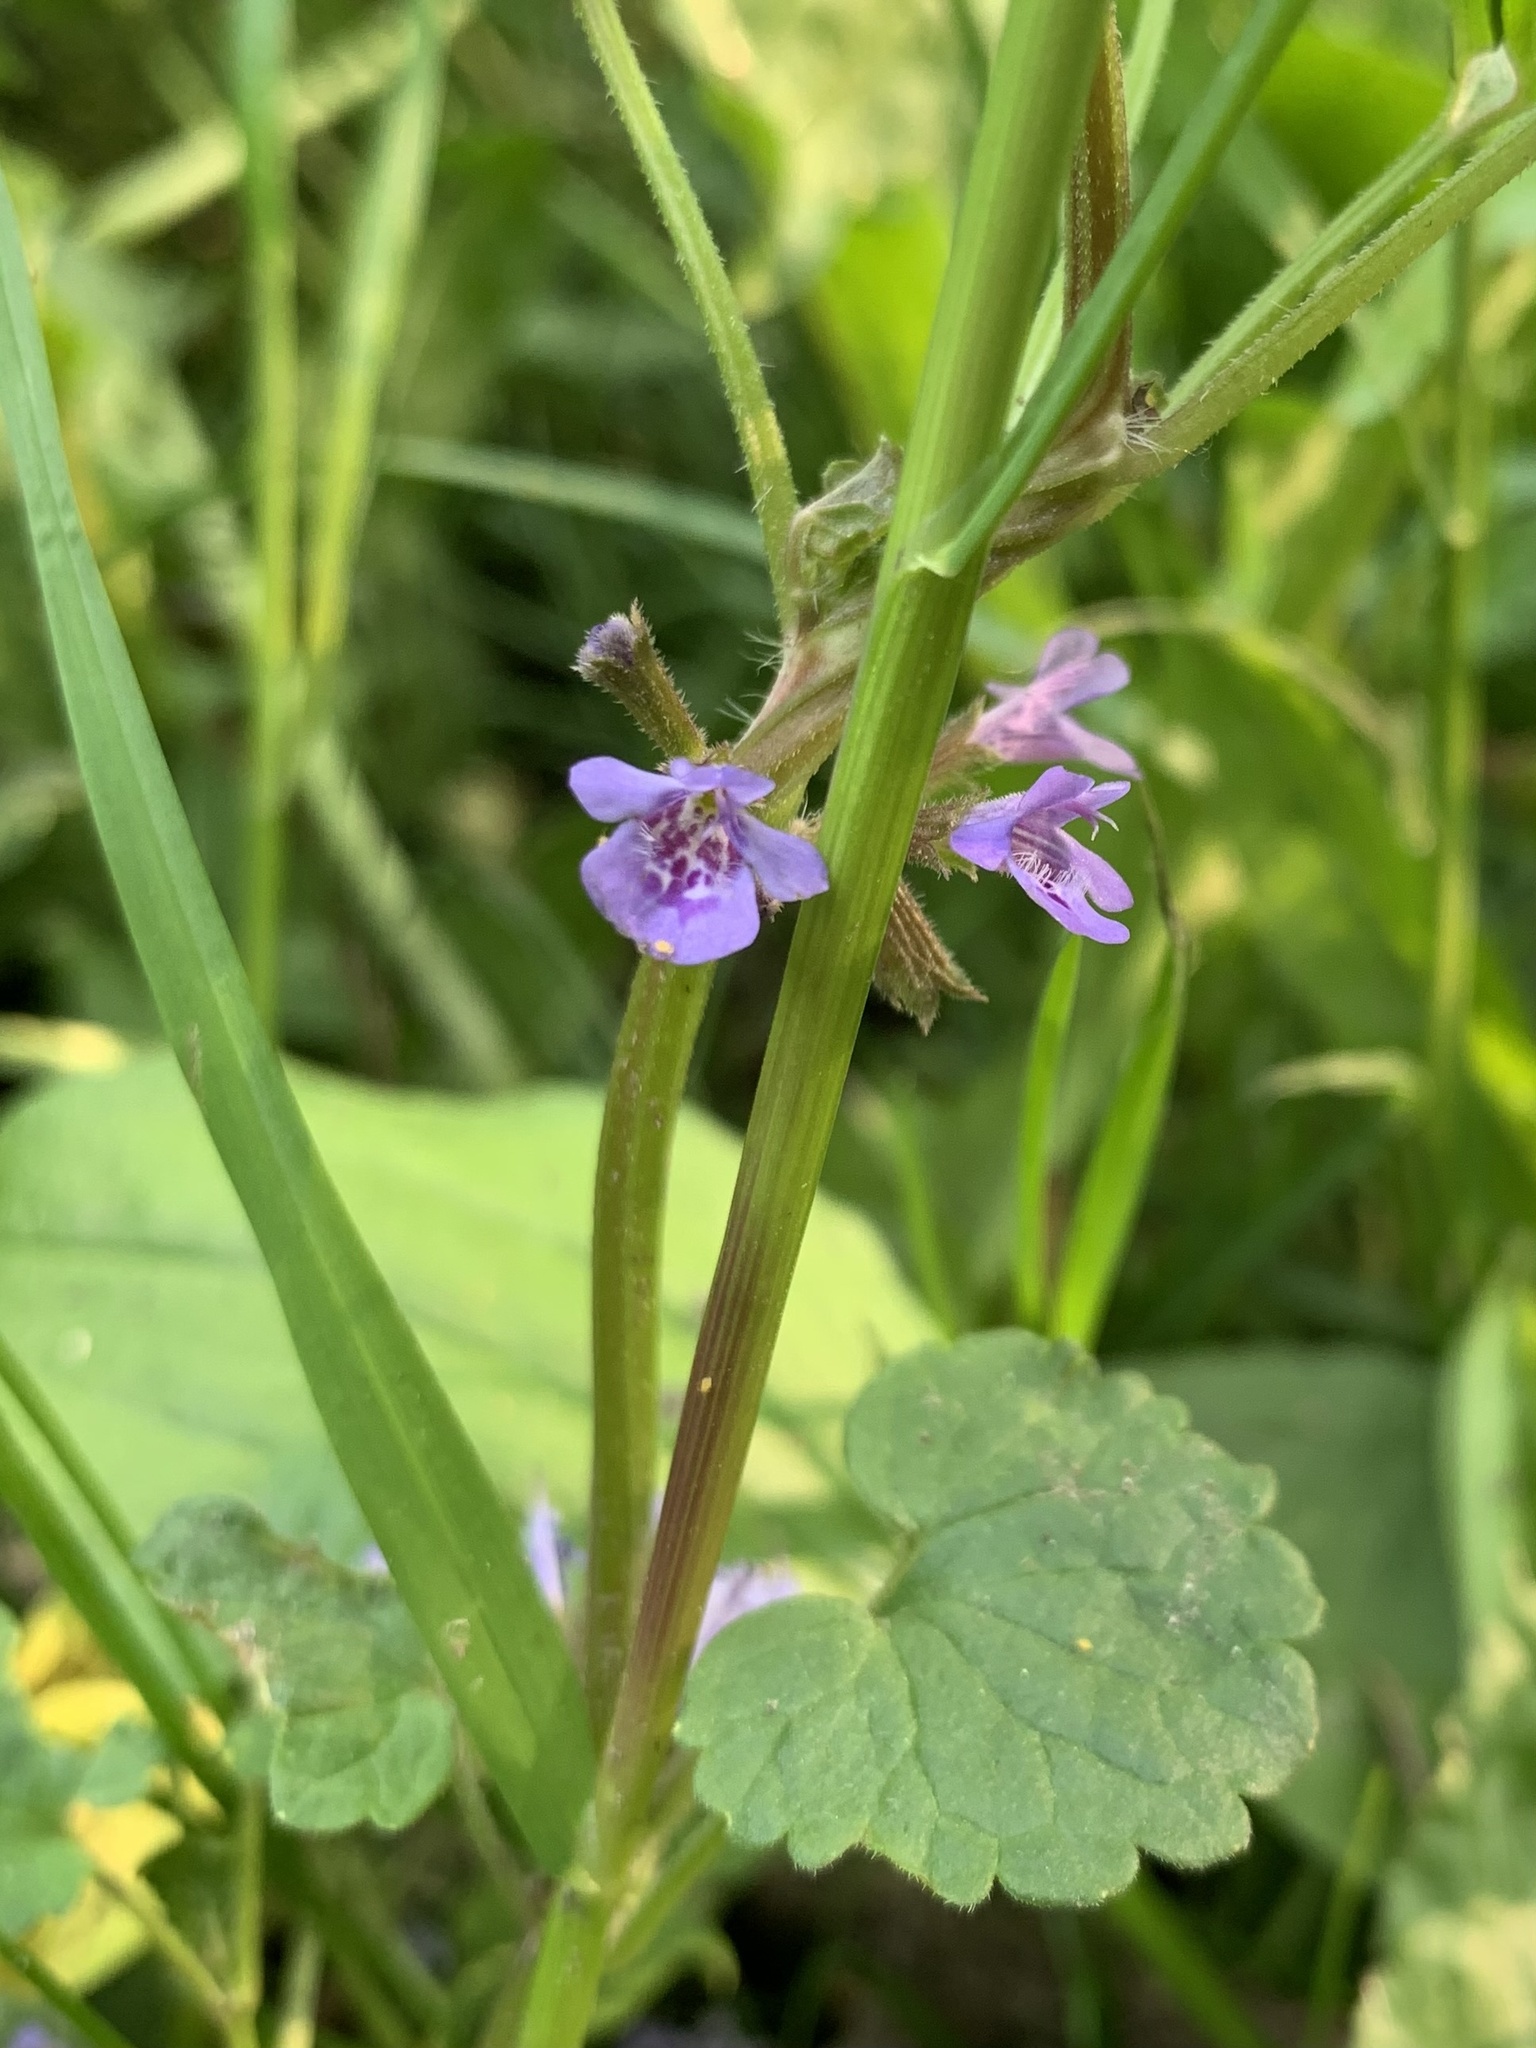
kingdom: Plantae
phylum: Tracheophyta
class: Magnoliopsida
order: Lamiales
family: Lamiaceae
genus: Glechoma
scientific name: Glechoma hederacea
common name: Ground ivy
